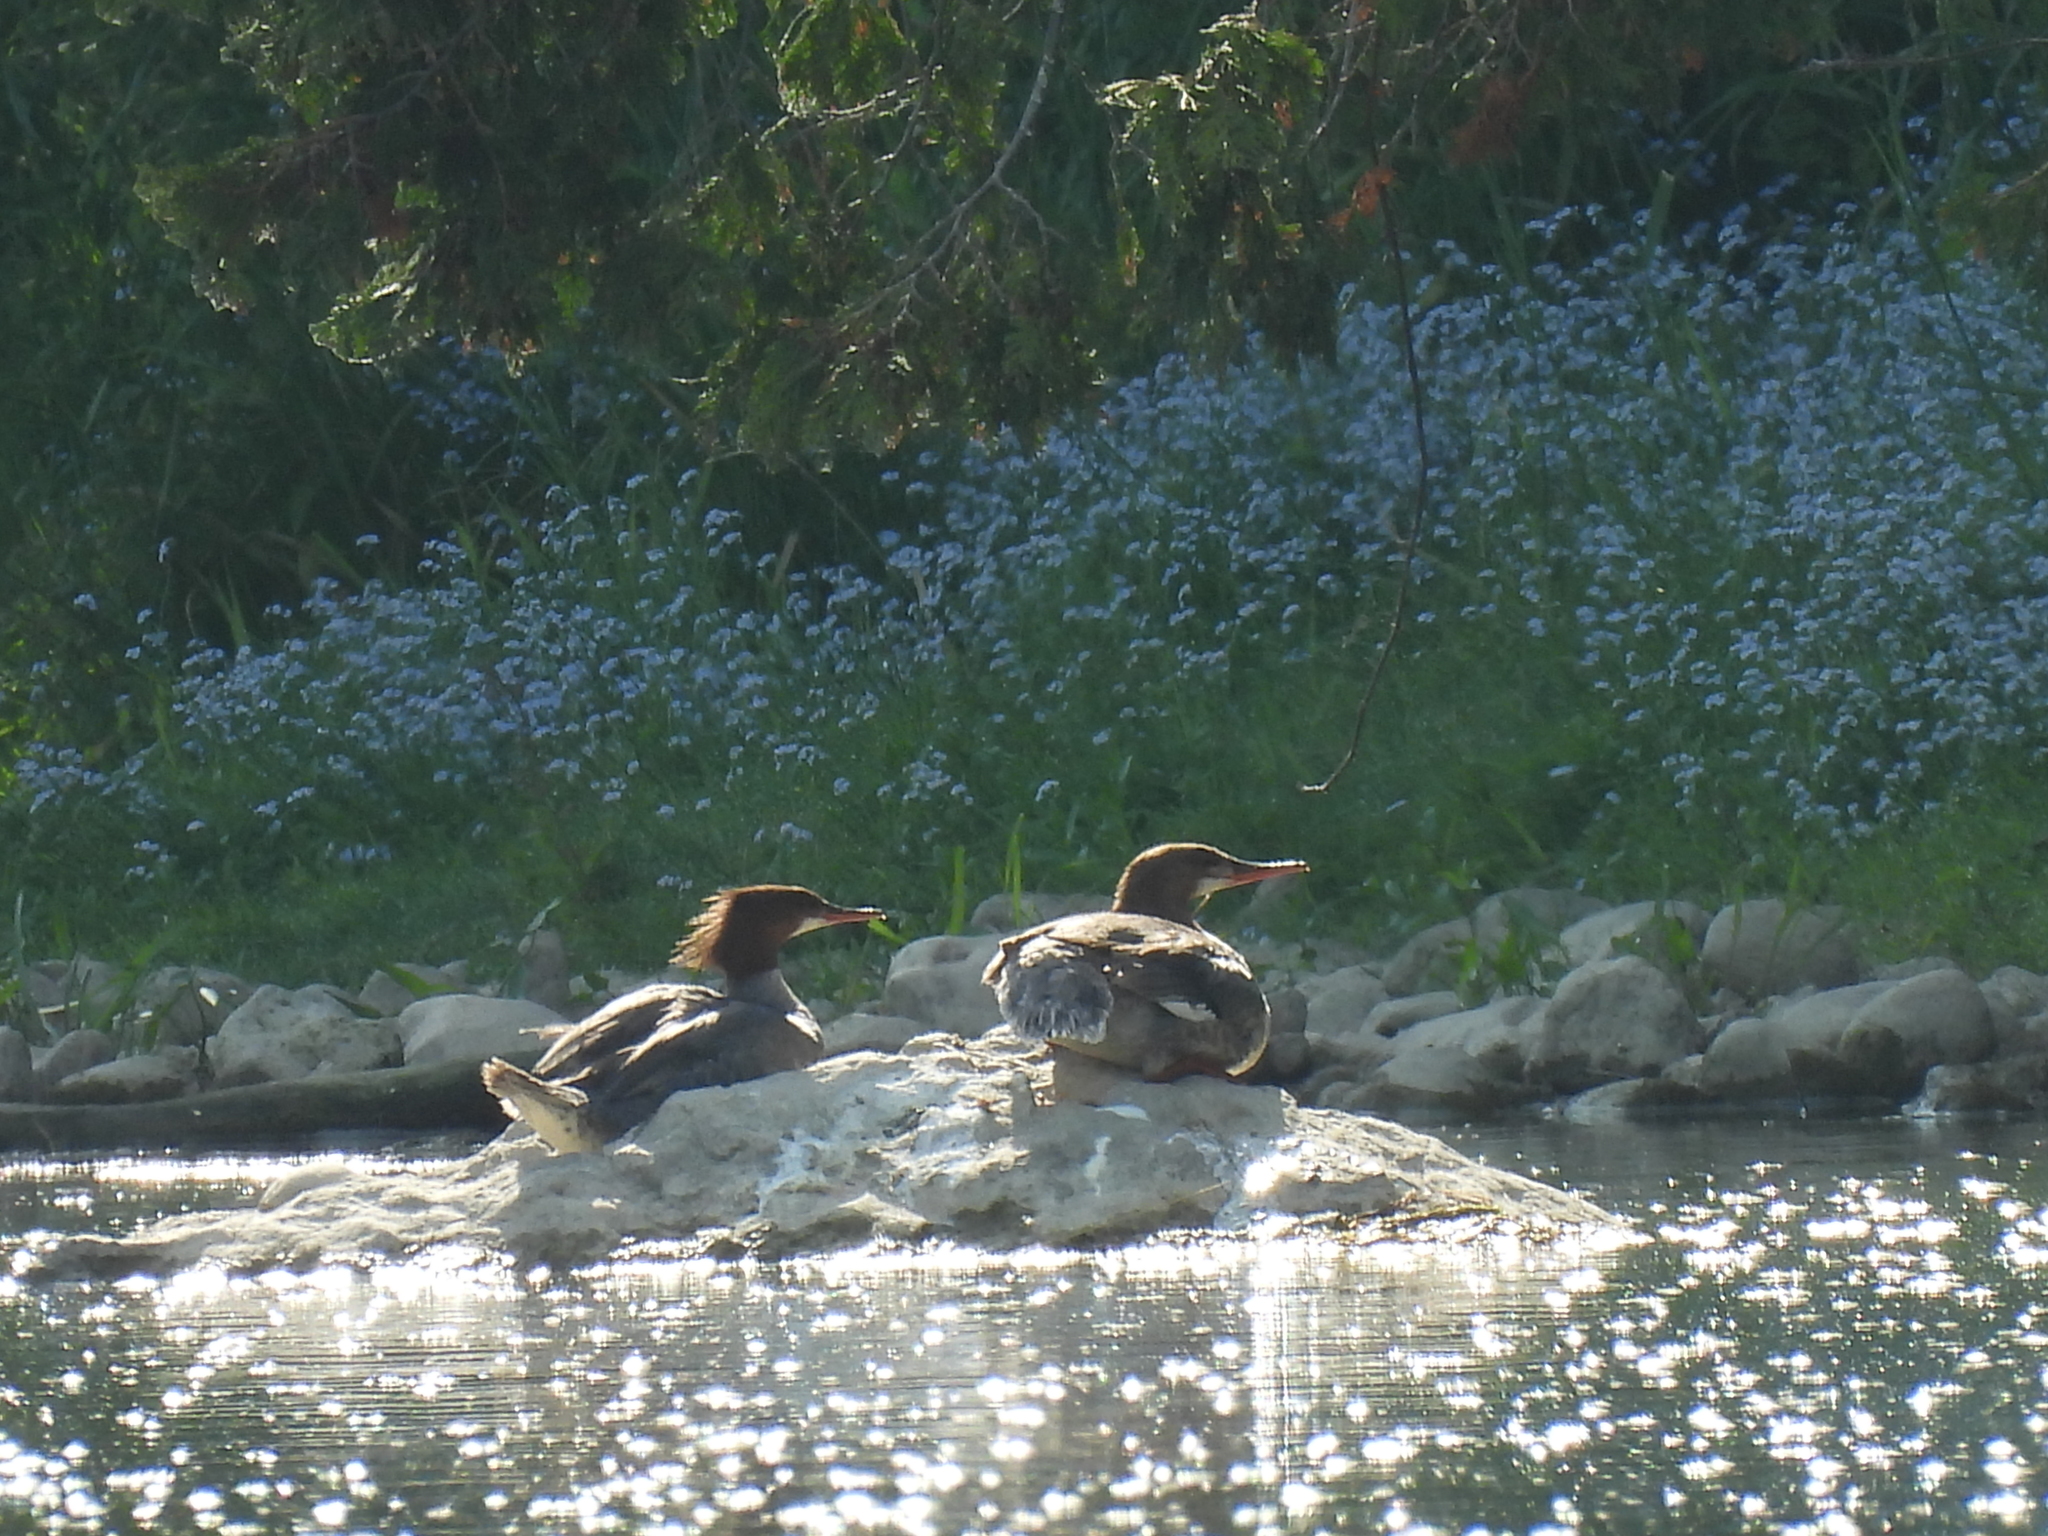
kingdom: Animalia
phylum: Chordata
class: Aves
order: Anseriformes
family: Anatidae
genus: Mergus
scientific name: Mergus merganser
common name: Common merganser
